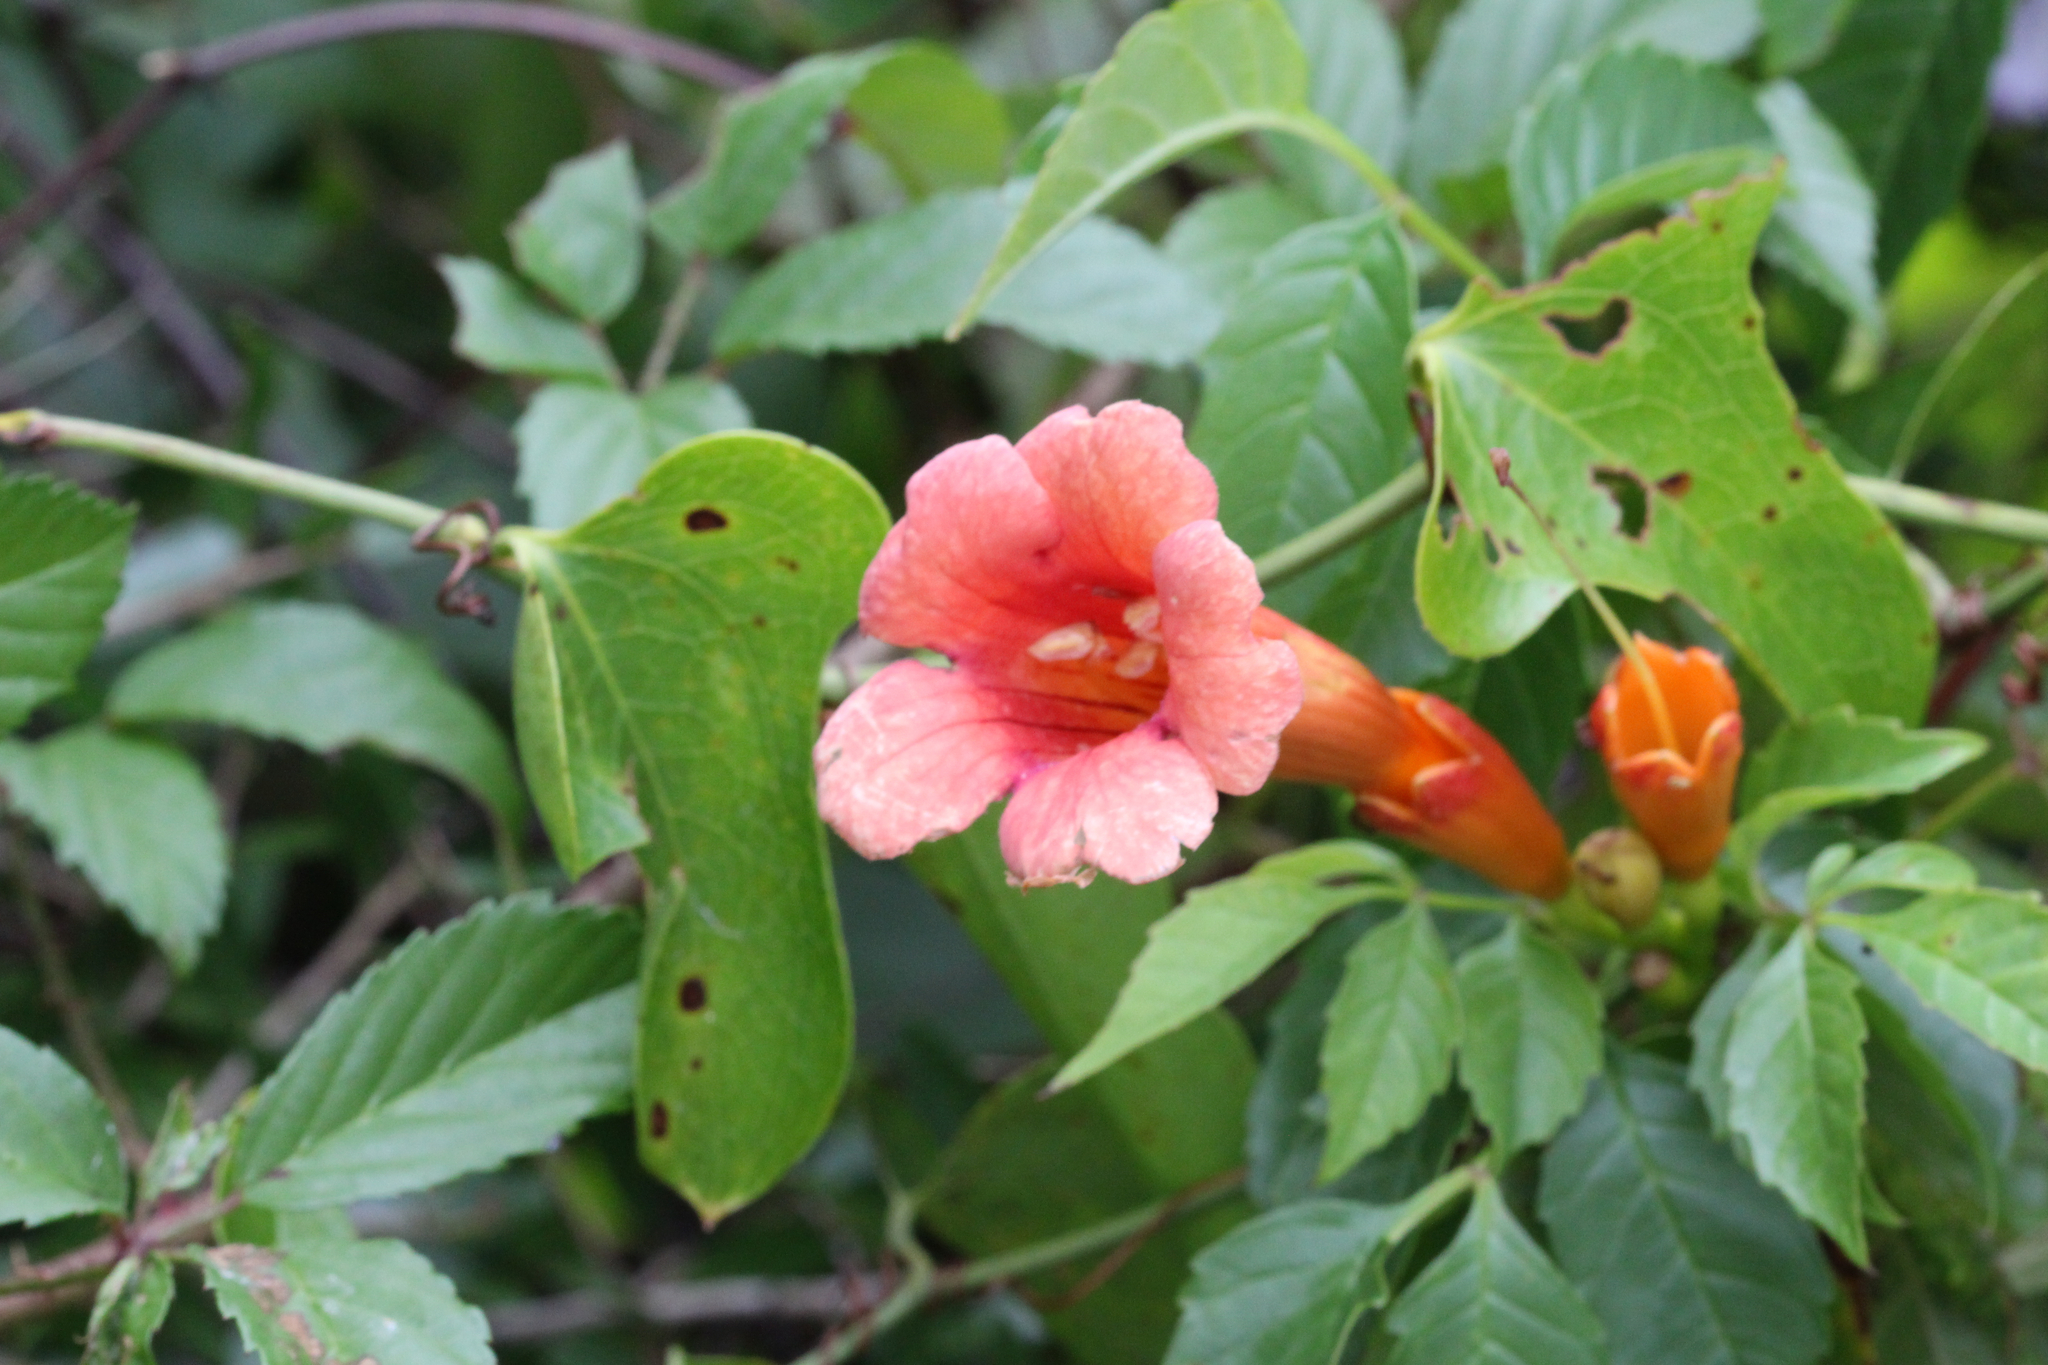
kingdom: Plantae
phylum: Tracheophyta
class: Magnoliopsida
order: Lamiales
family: Bignoniaceae
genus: Campsis
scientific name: Campsis radicans
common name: Trumpet-creeper
